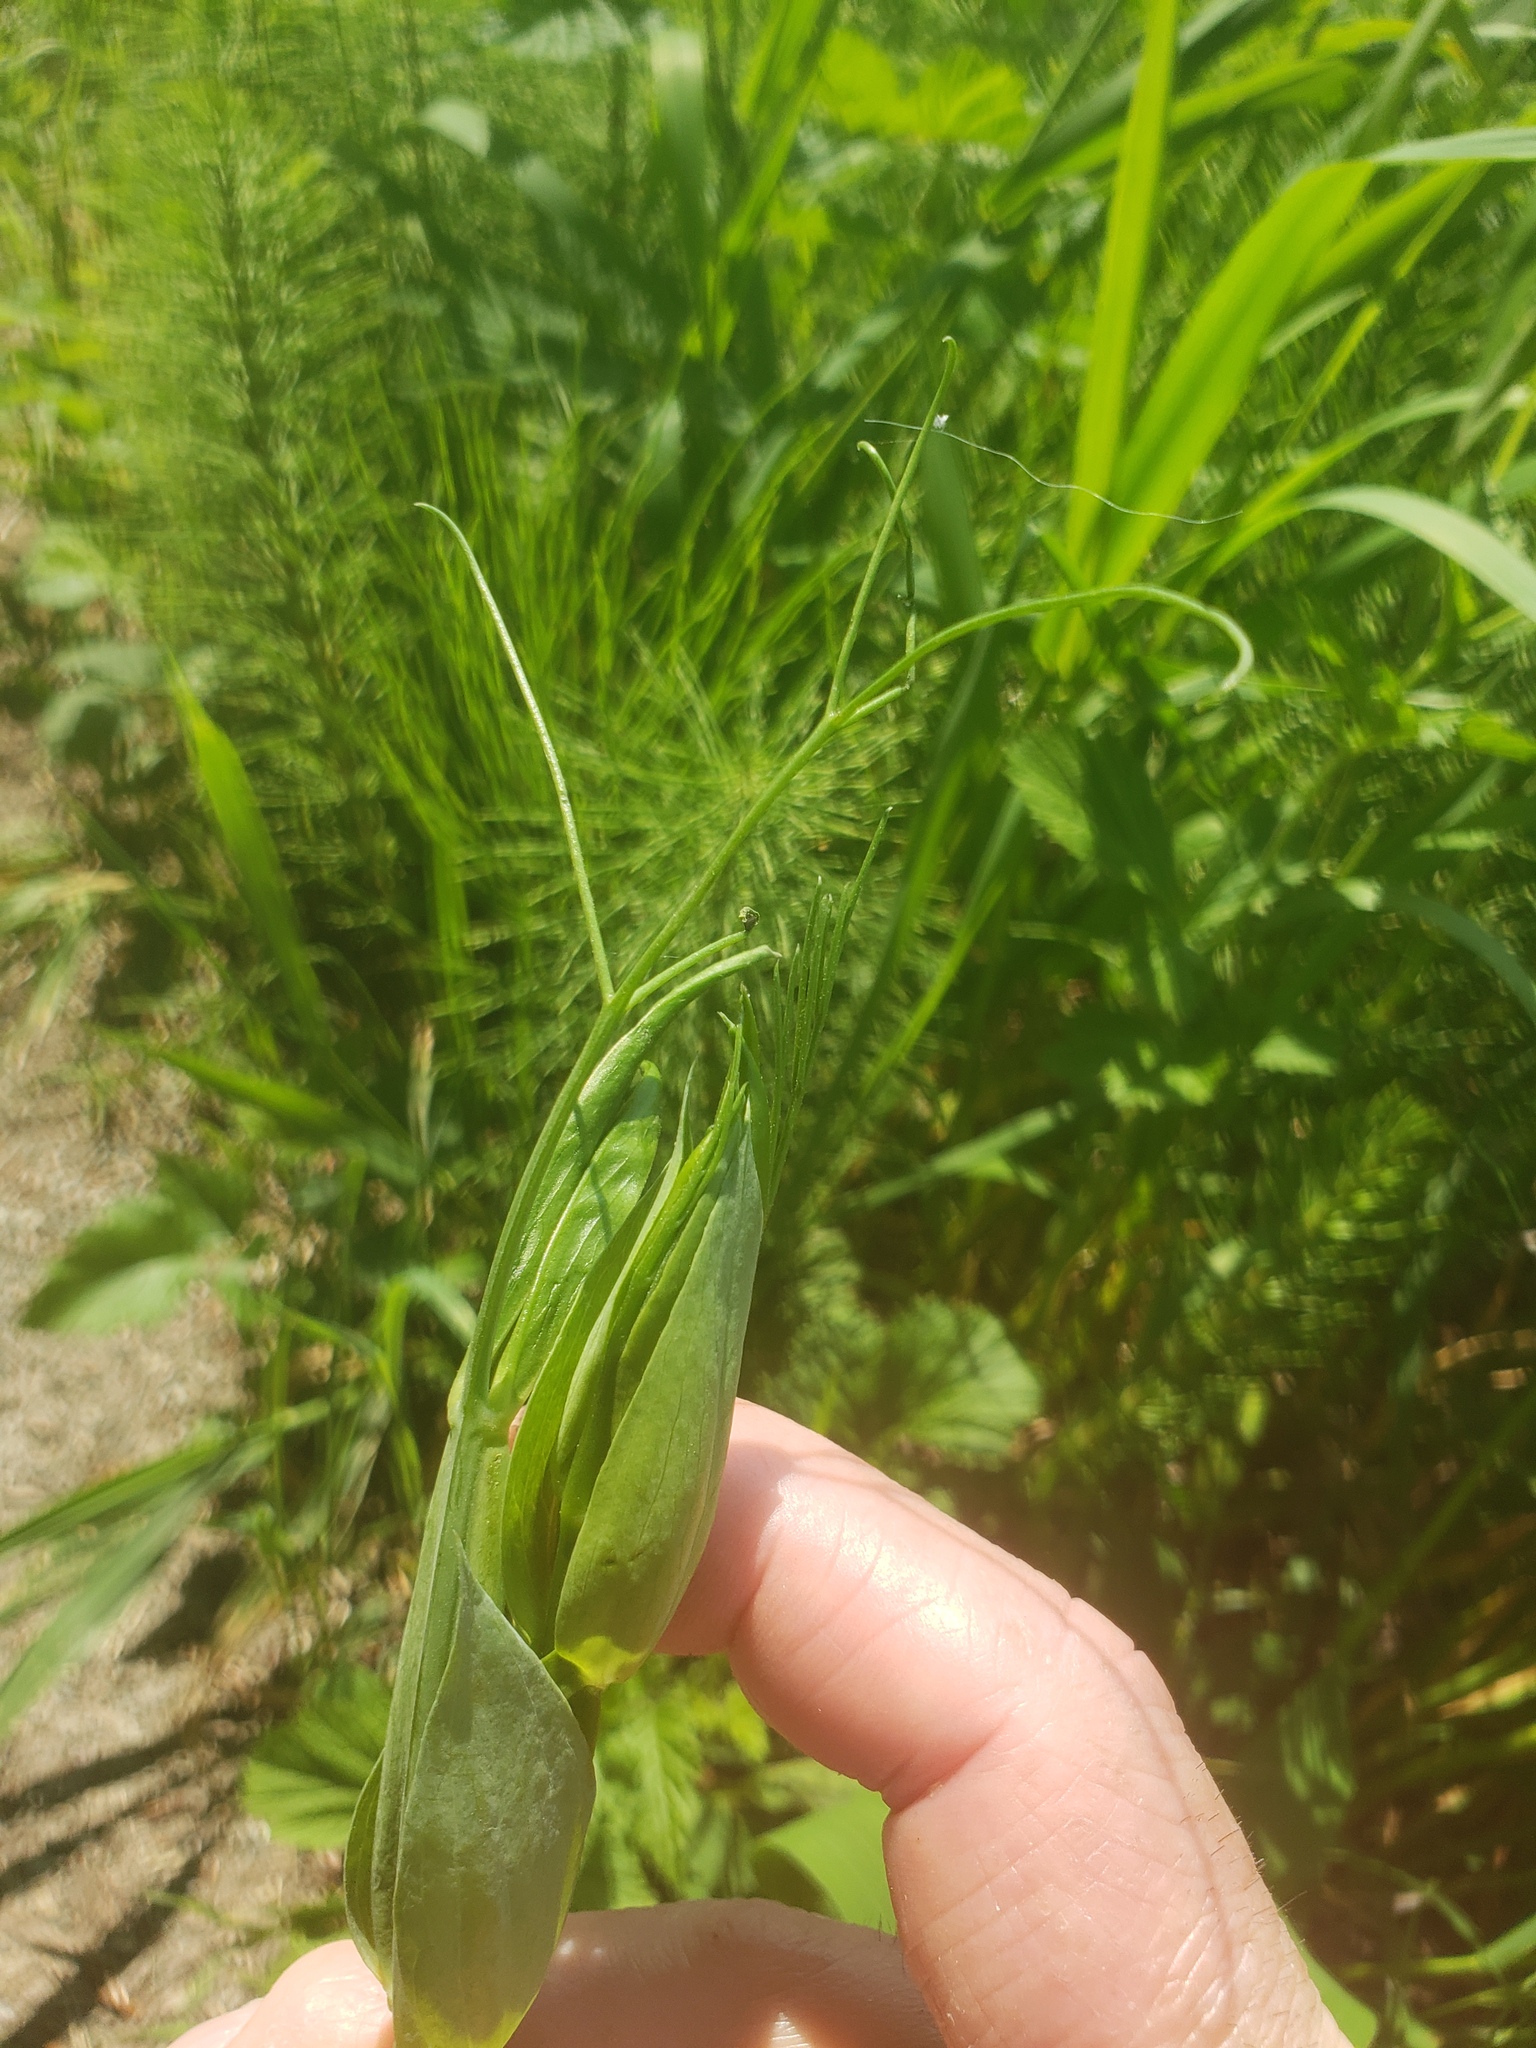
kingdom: Plantae
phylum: Tracheophyta
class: Magnoliopsida
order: Fabales
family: Fabaceae
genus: Lathyrus
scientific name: Lathyrus latifolius
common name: Perennial pea
